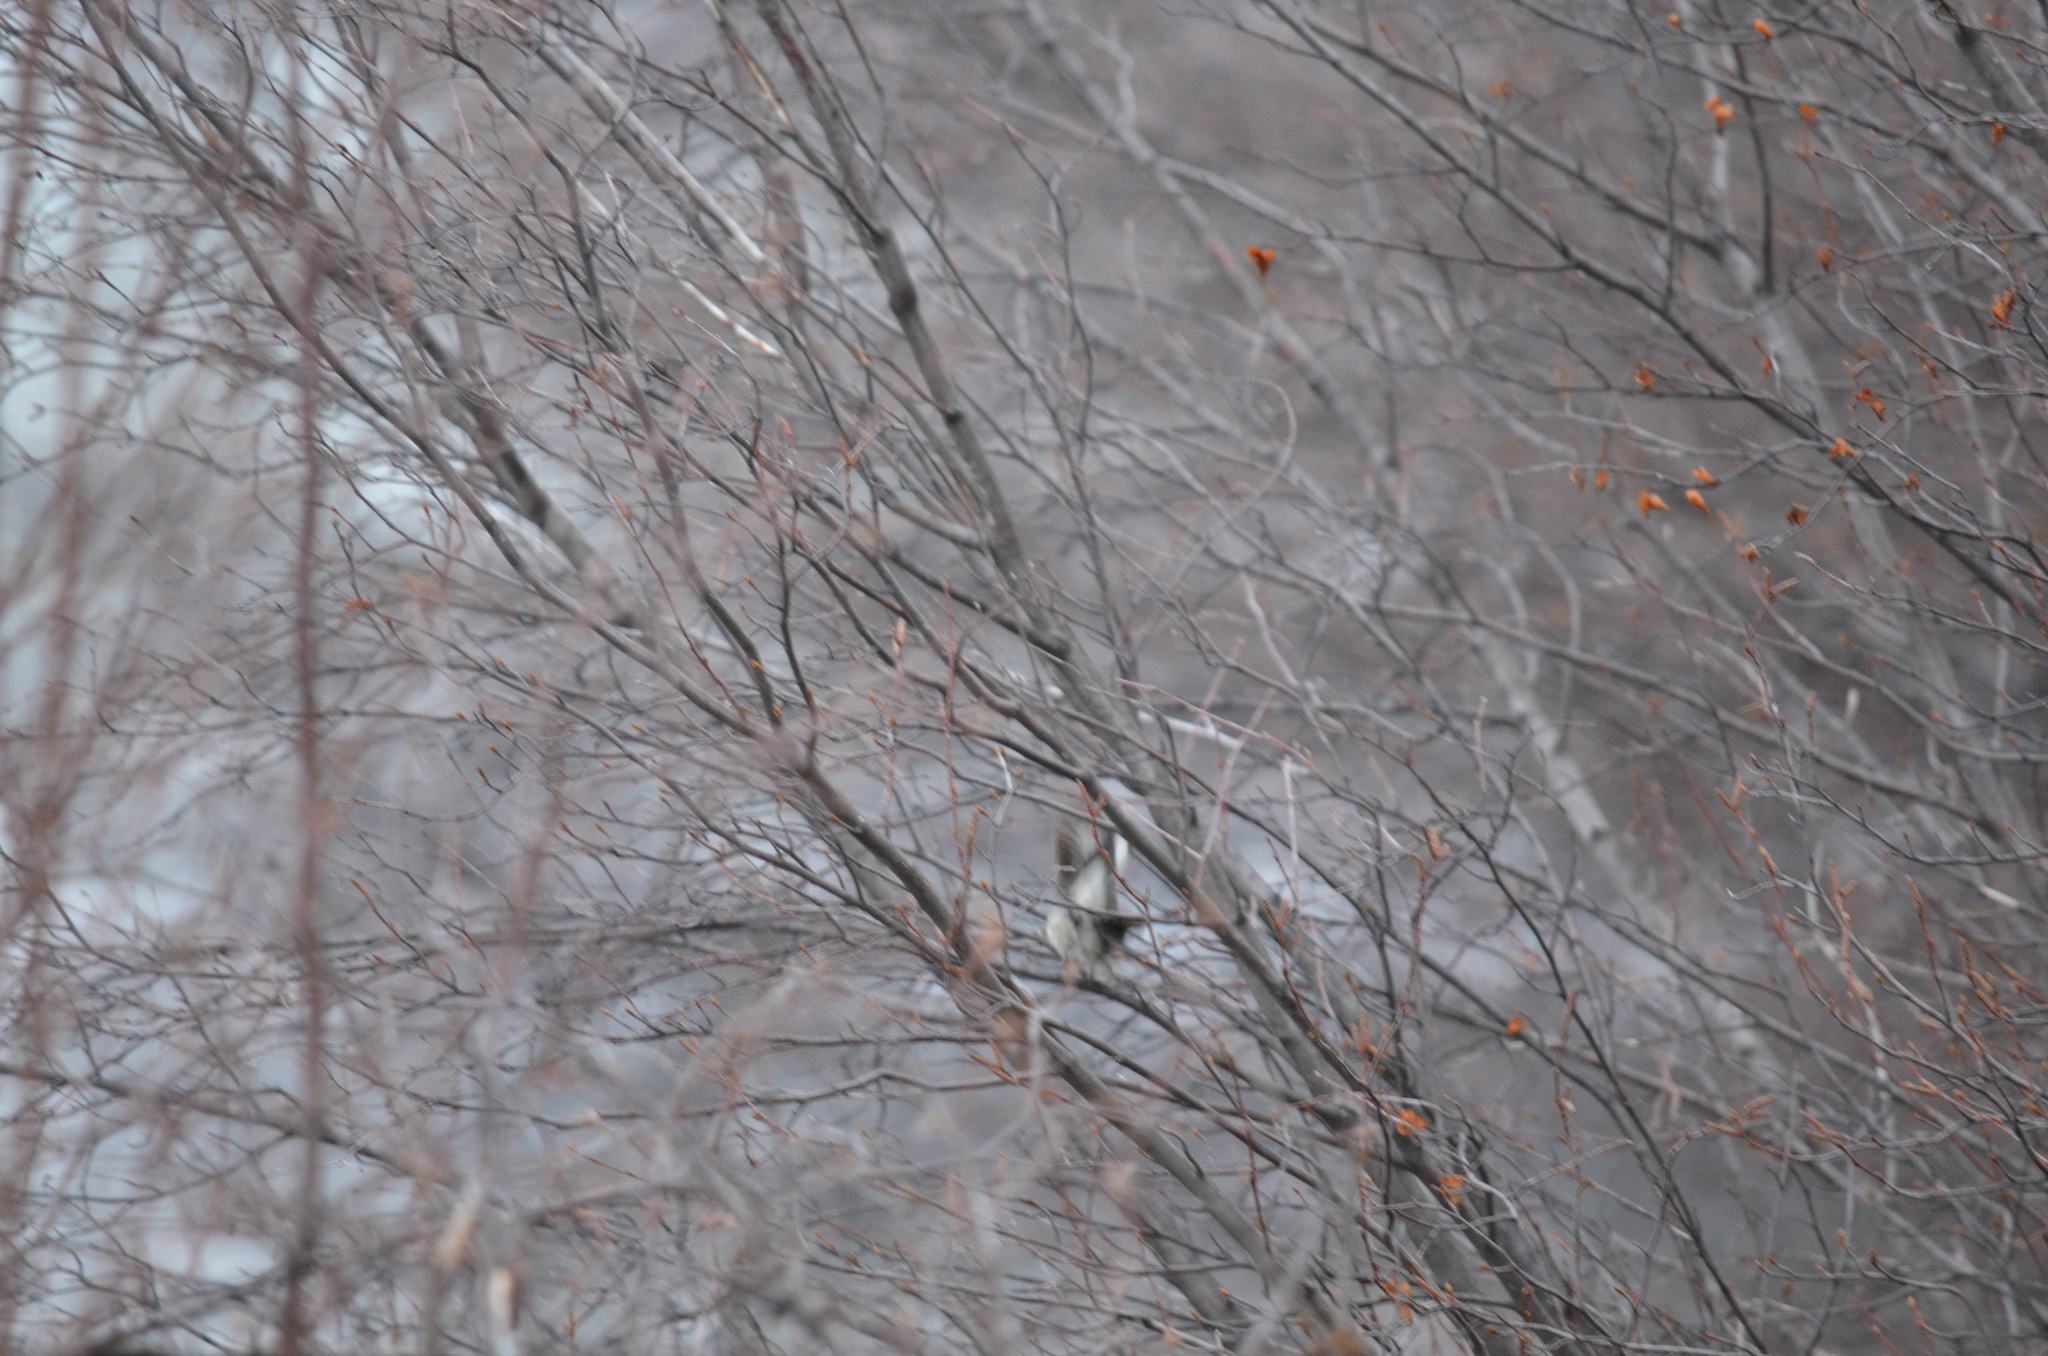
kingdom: Animalia
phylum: Chordata
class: Aves
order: Passeriformes
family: Parulidae
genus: Setophaga
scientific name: Setophaga auduboni
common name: Audubon's warbler
